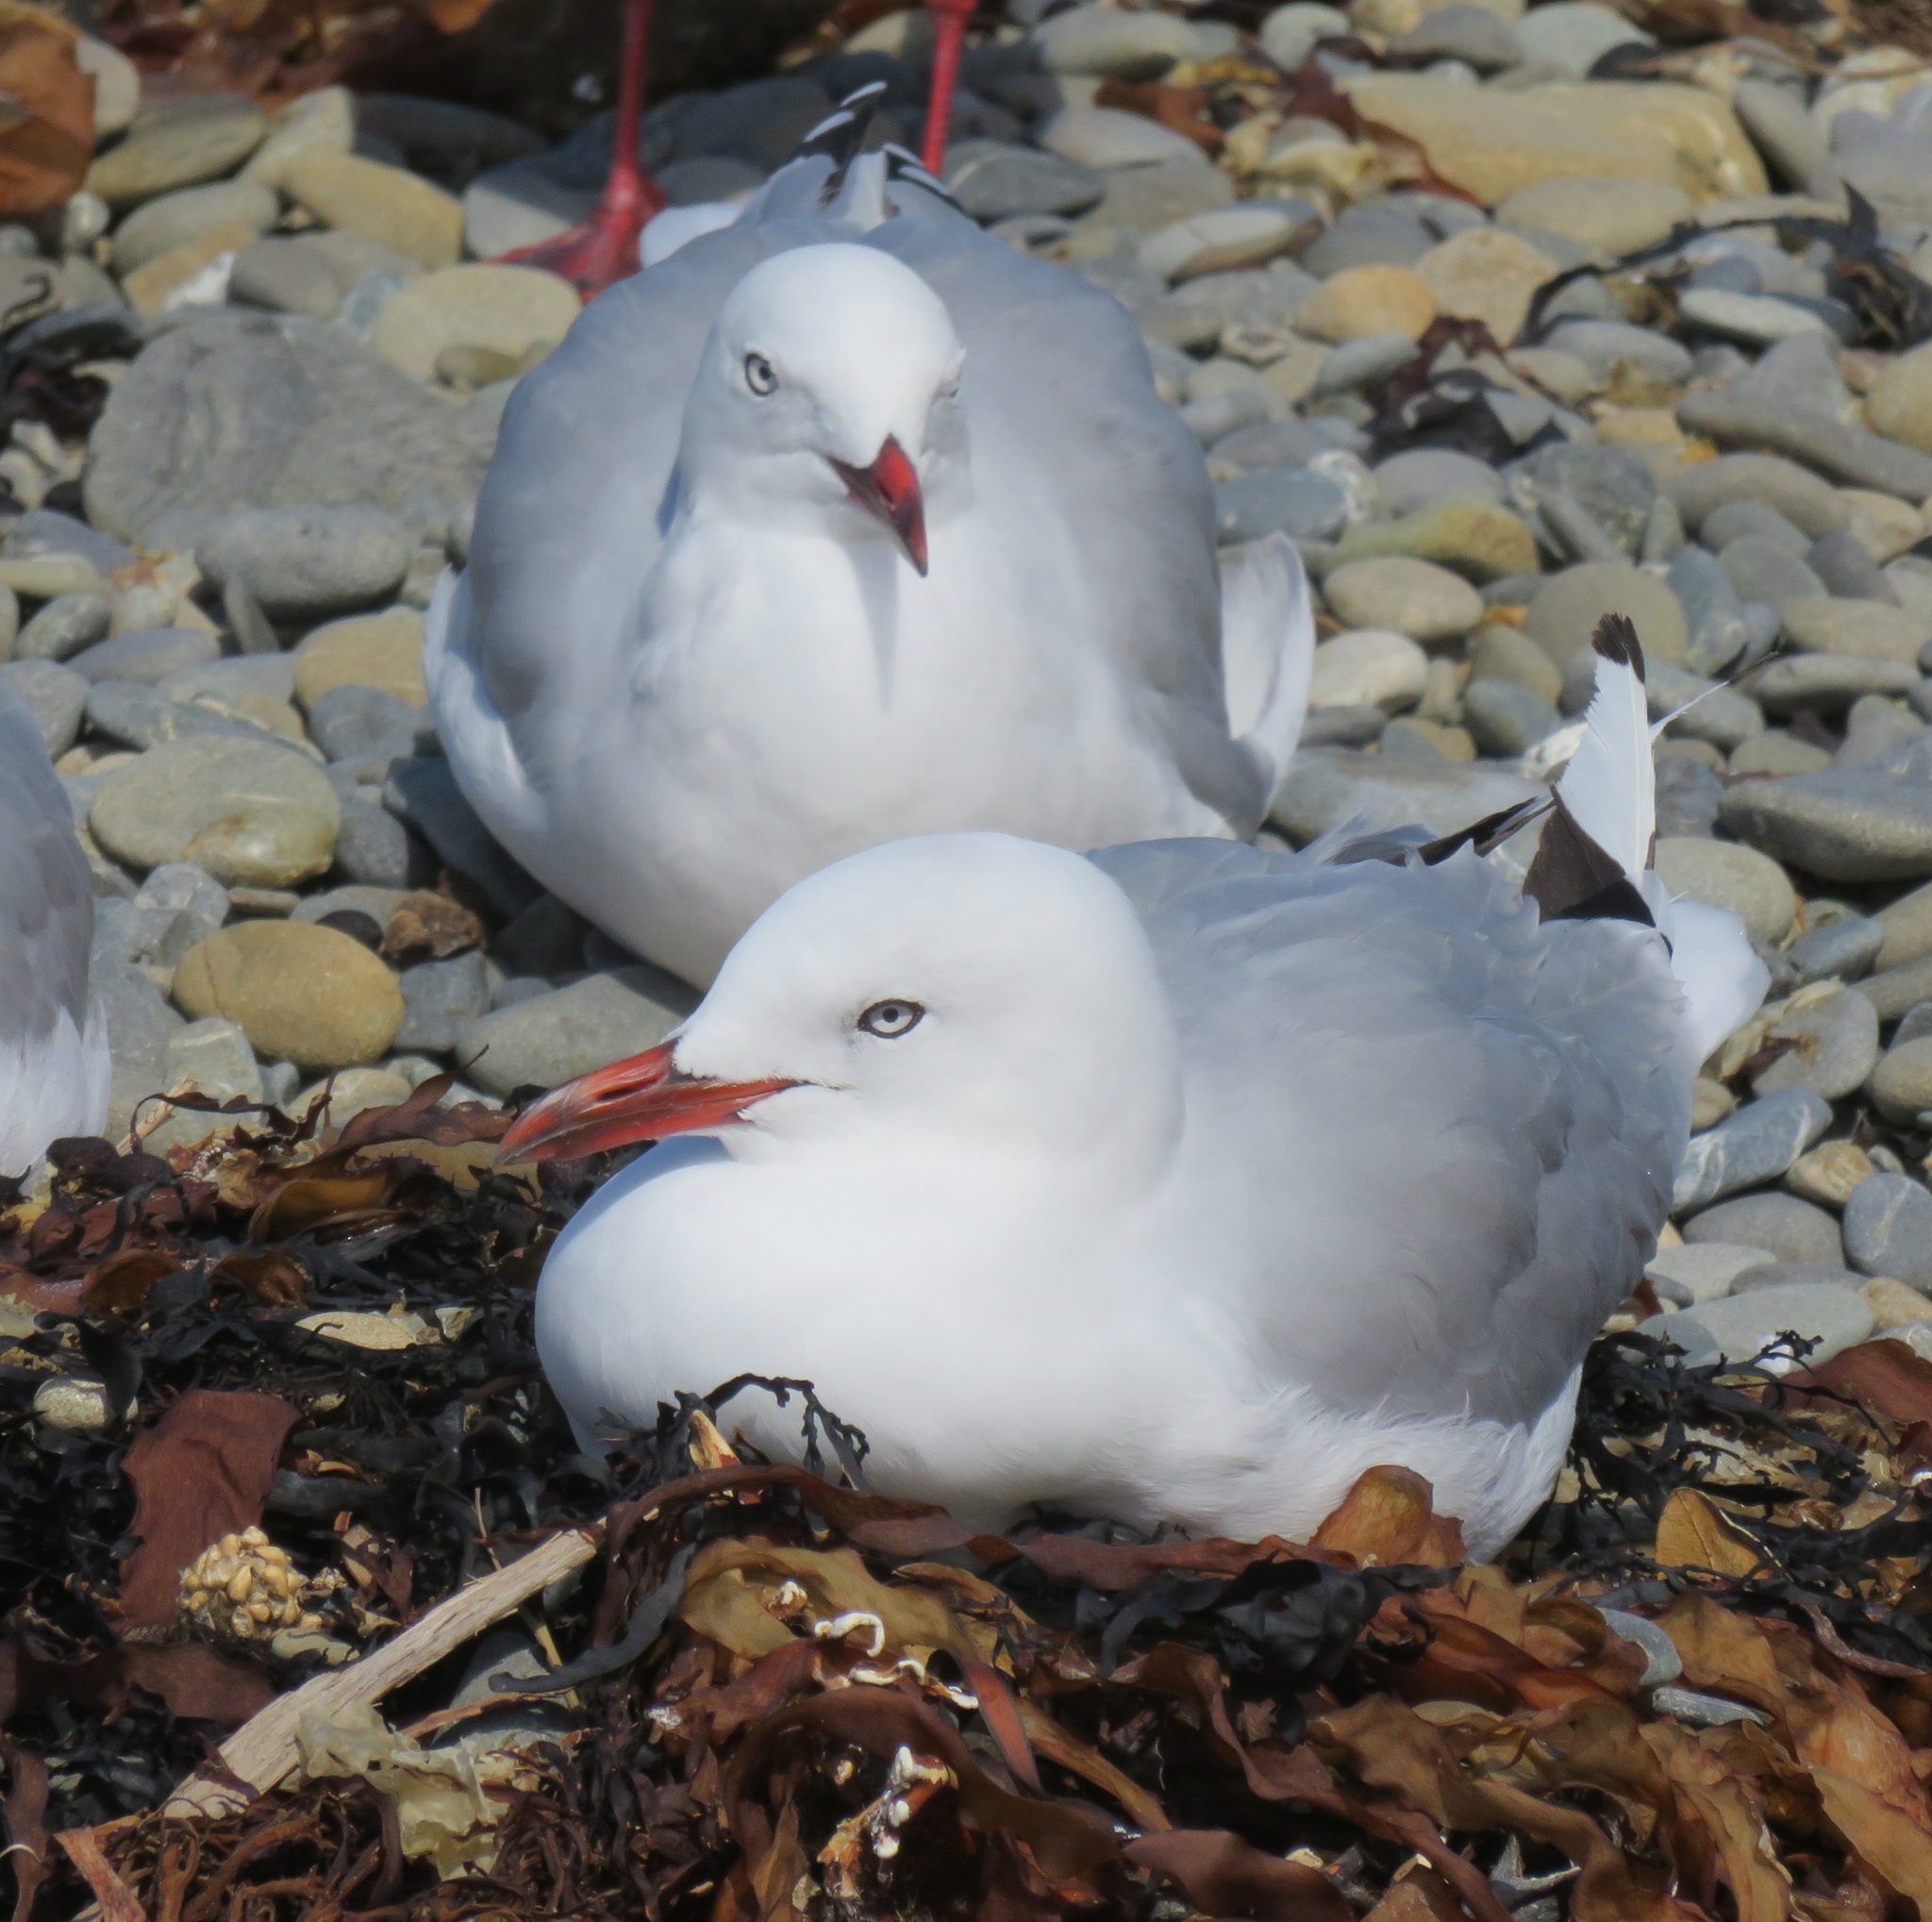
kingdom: Animalia
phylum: Chordata
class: Aves
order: Charadriiformes
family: Laridae
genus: Chroicocephalus
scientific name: Chroicocephalus novaehollandiae
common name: Silver gull
